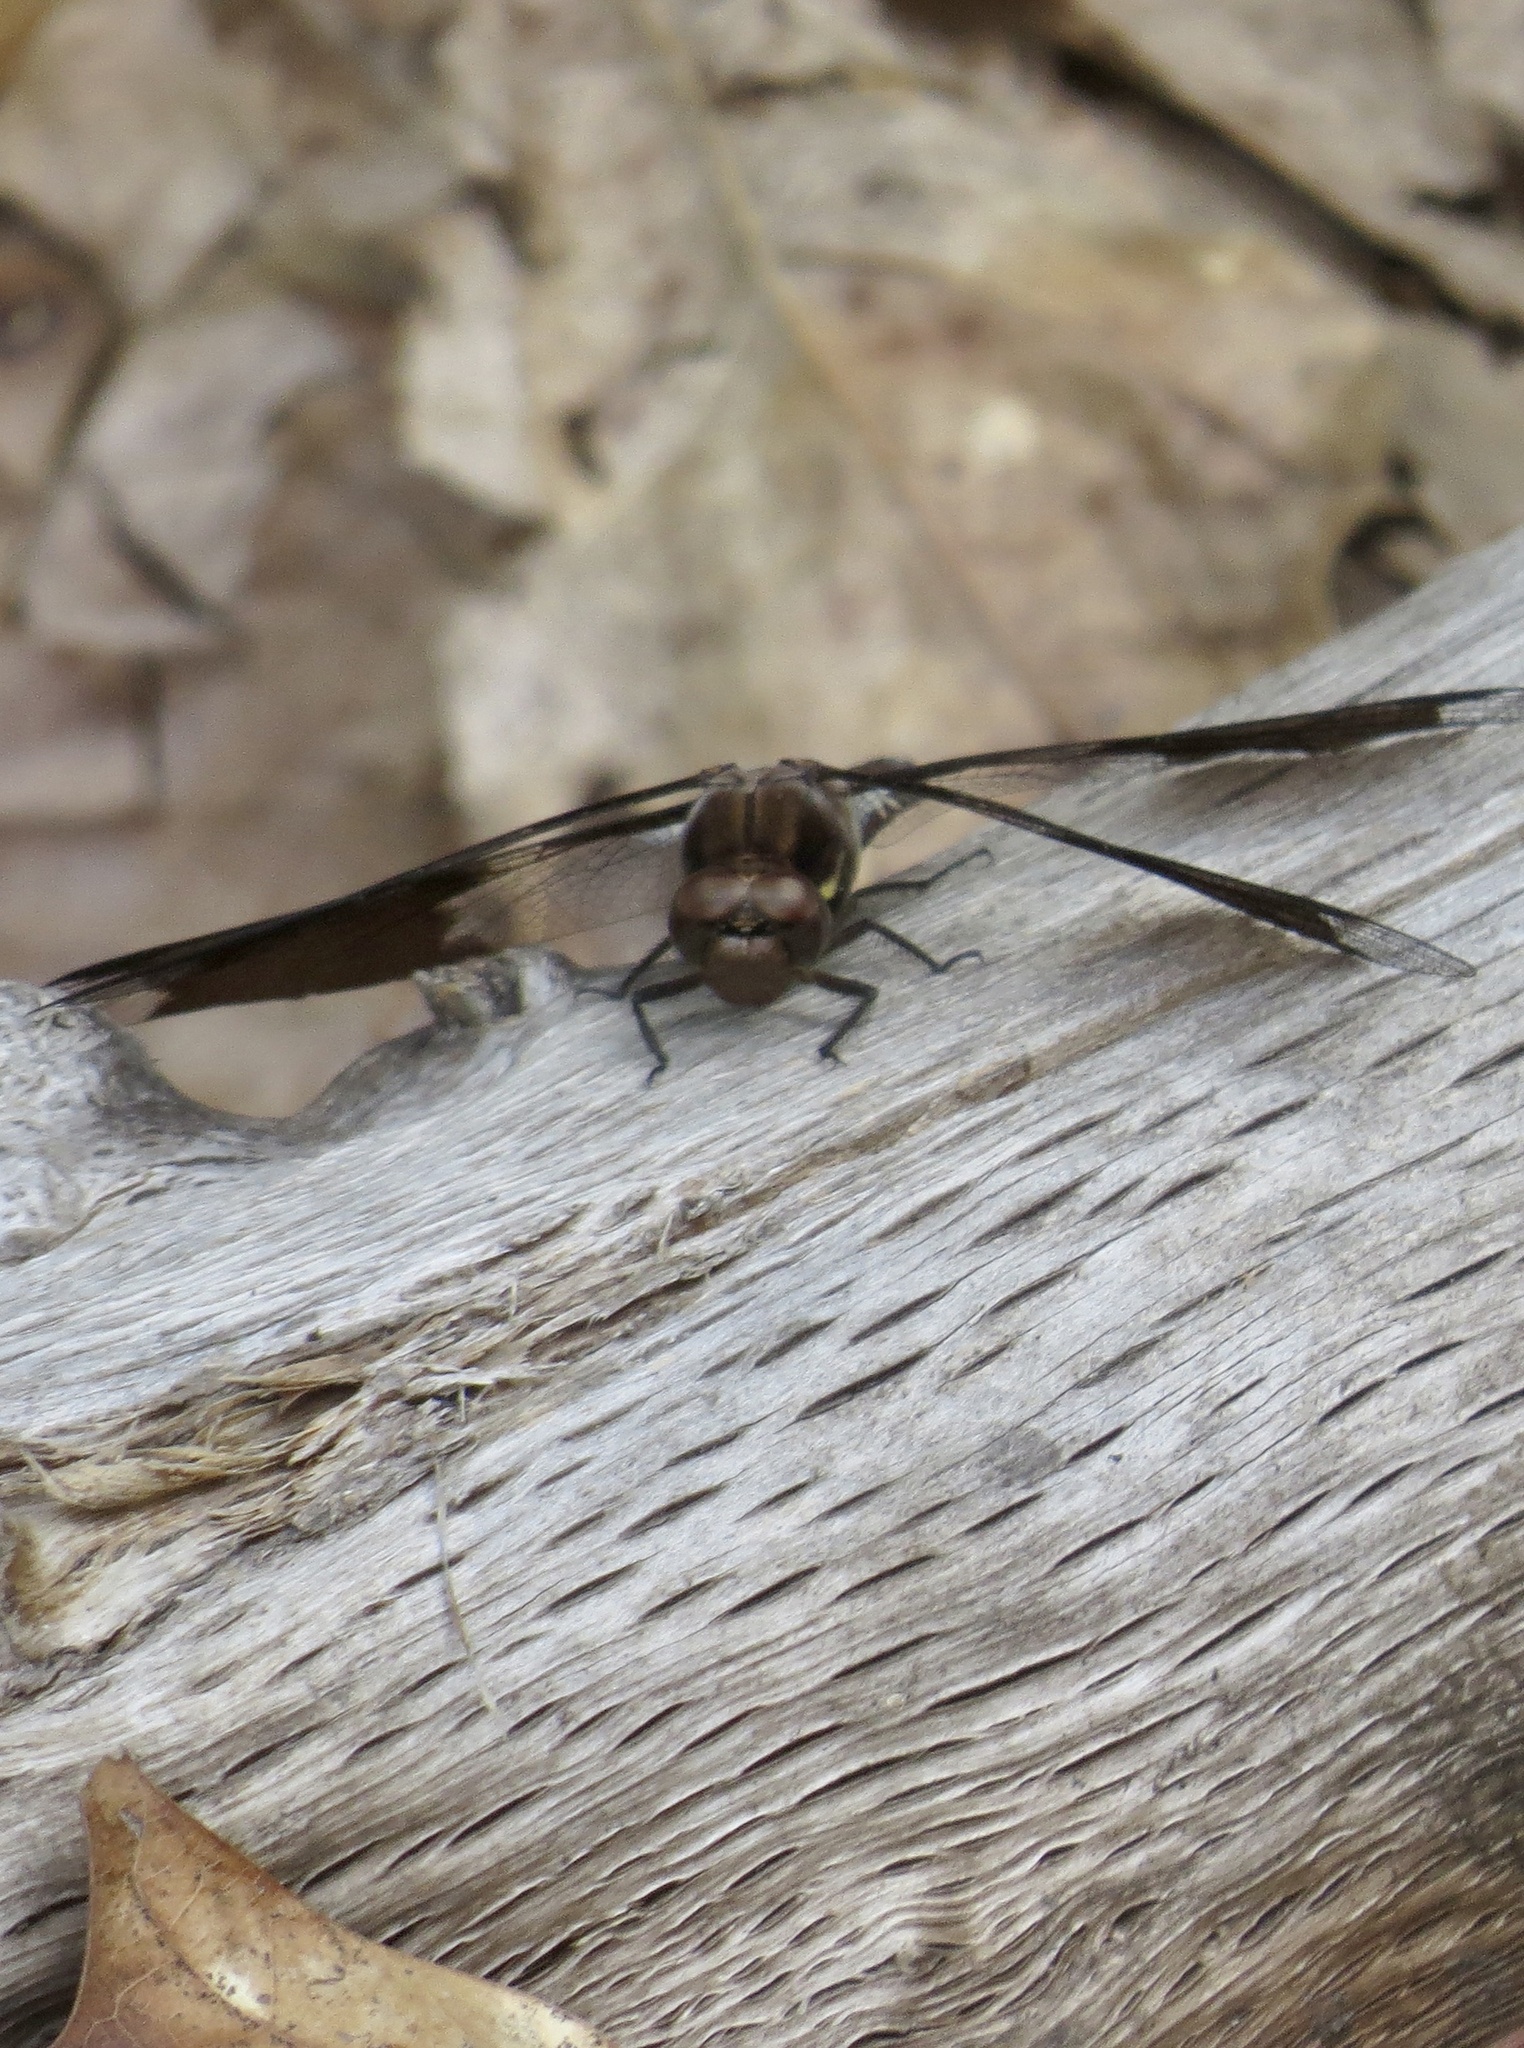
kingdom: Animalia
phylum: Arthropoda
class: Insecta
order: Odonata
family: Libellulidae
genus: Plathemis
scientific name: Plathemis lydia
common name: Common whitetail
